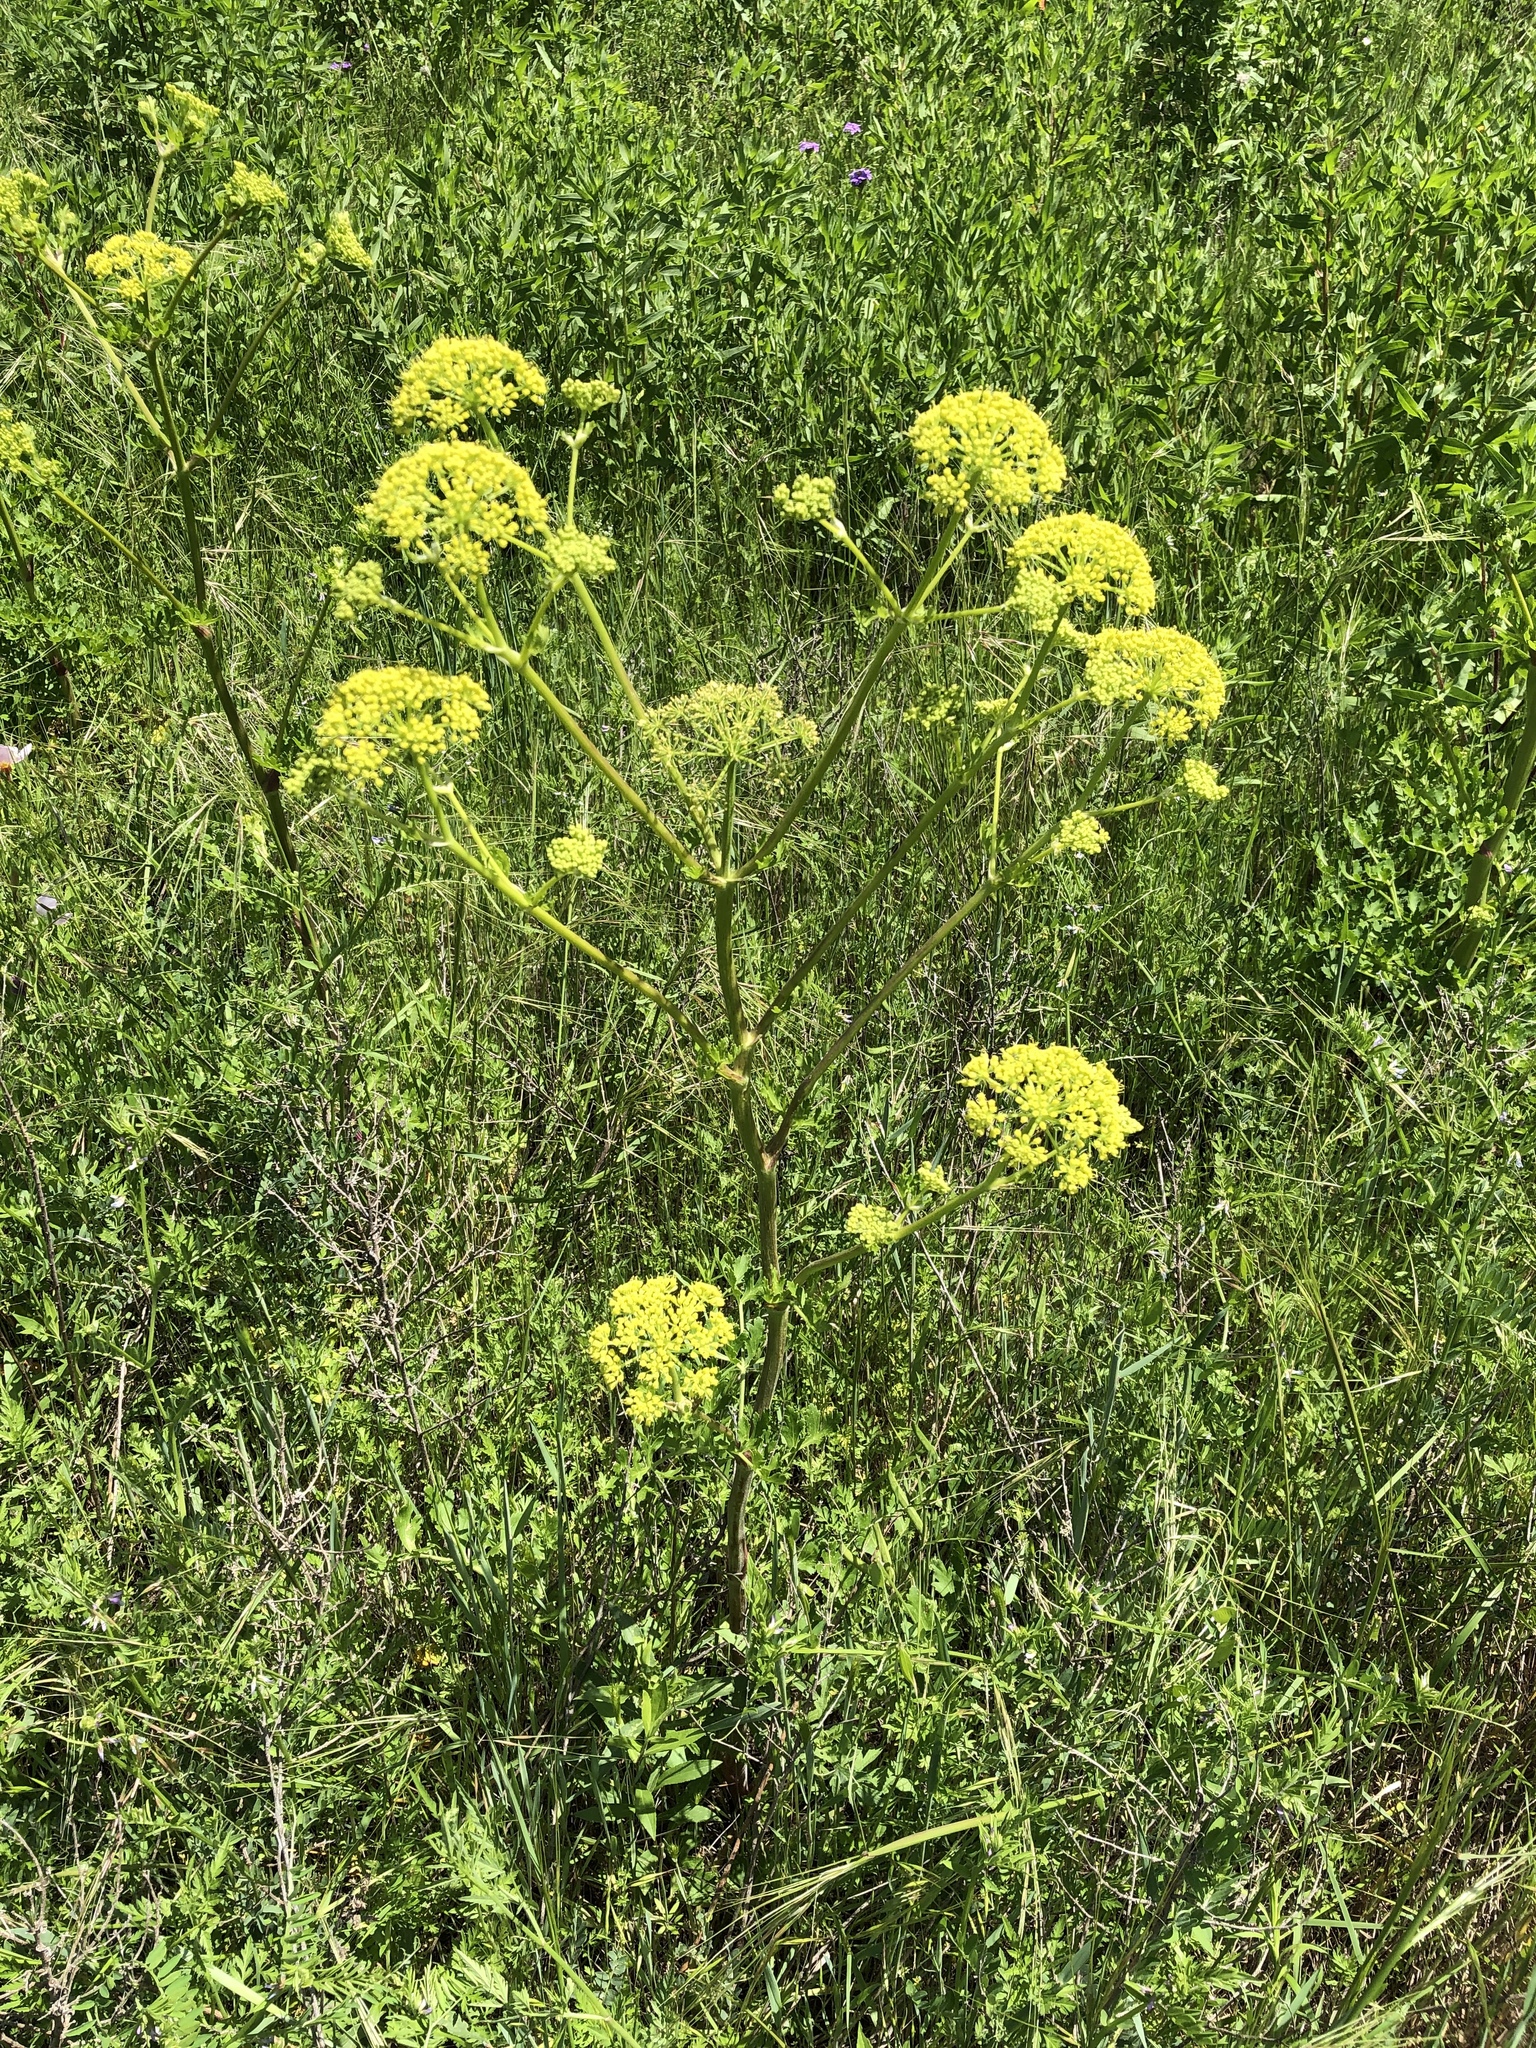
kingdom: Plantae
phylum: Tracheophyta
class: Magnoliopsida
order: Apiales
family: Apiaceae
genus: Polytaenia
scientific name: Polytaenia texana
